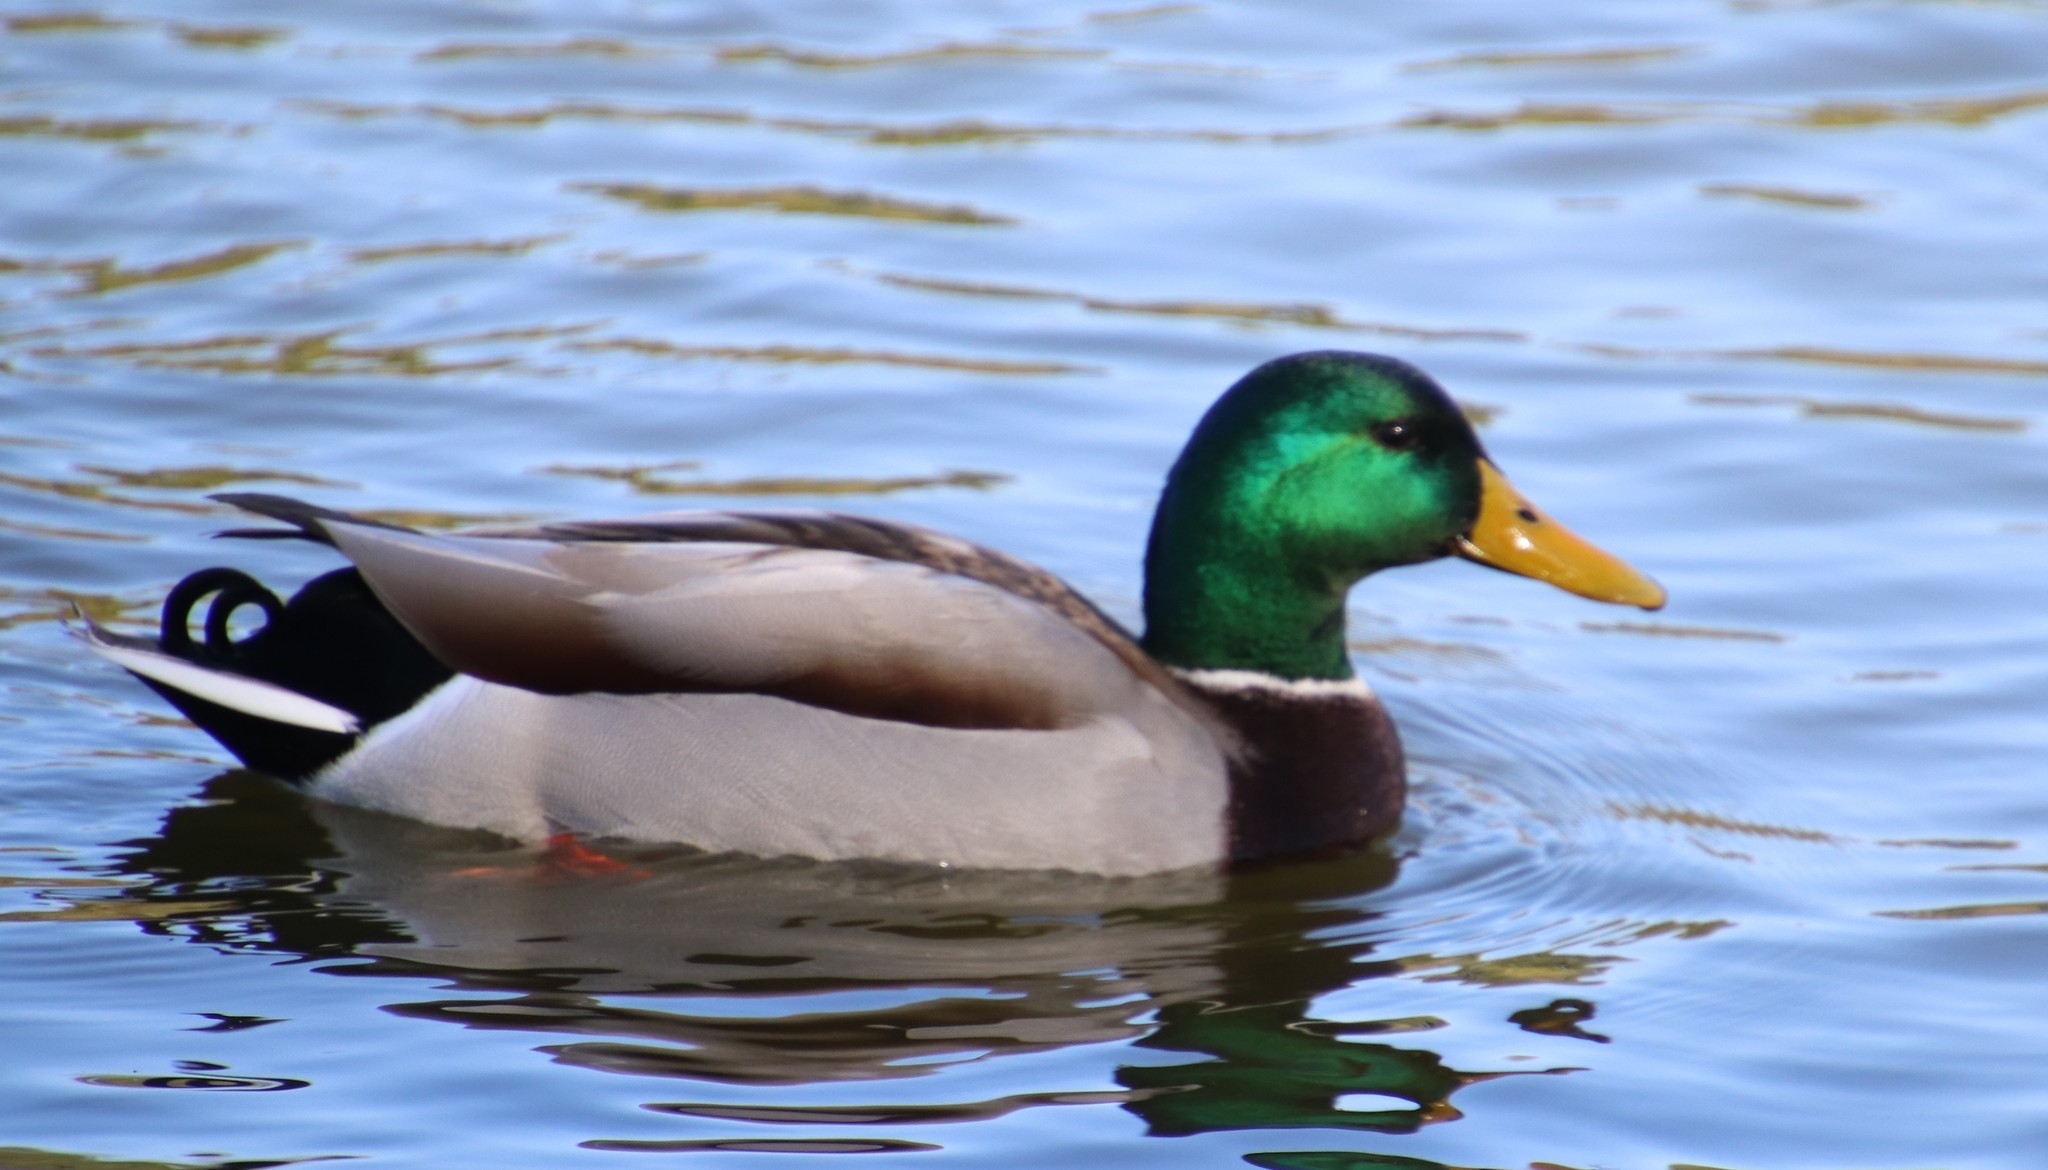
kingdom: Animalia
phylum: Chordata
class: Aves
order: Anseriformes
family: Anatidae
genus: Anas
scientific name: Anas platyrhynchos
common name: Mallard
